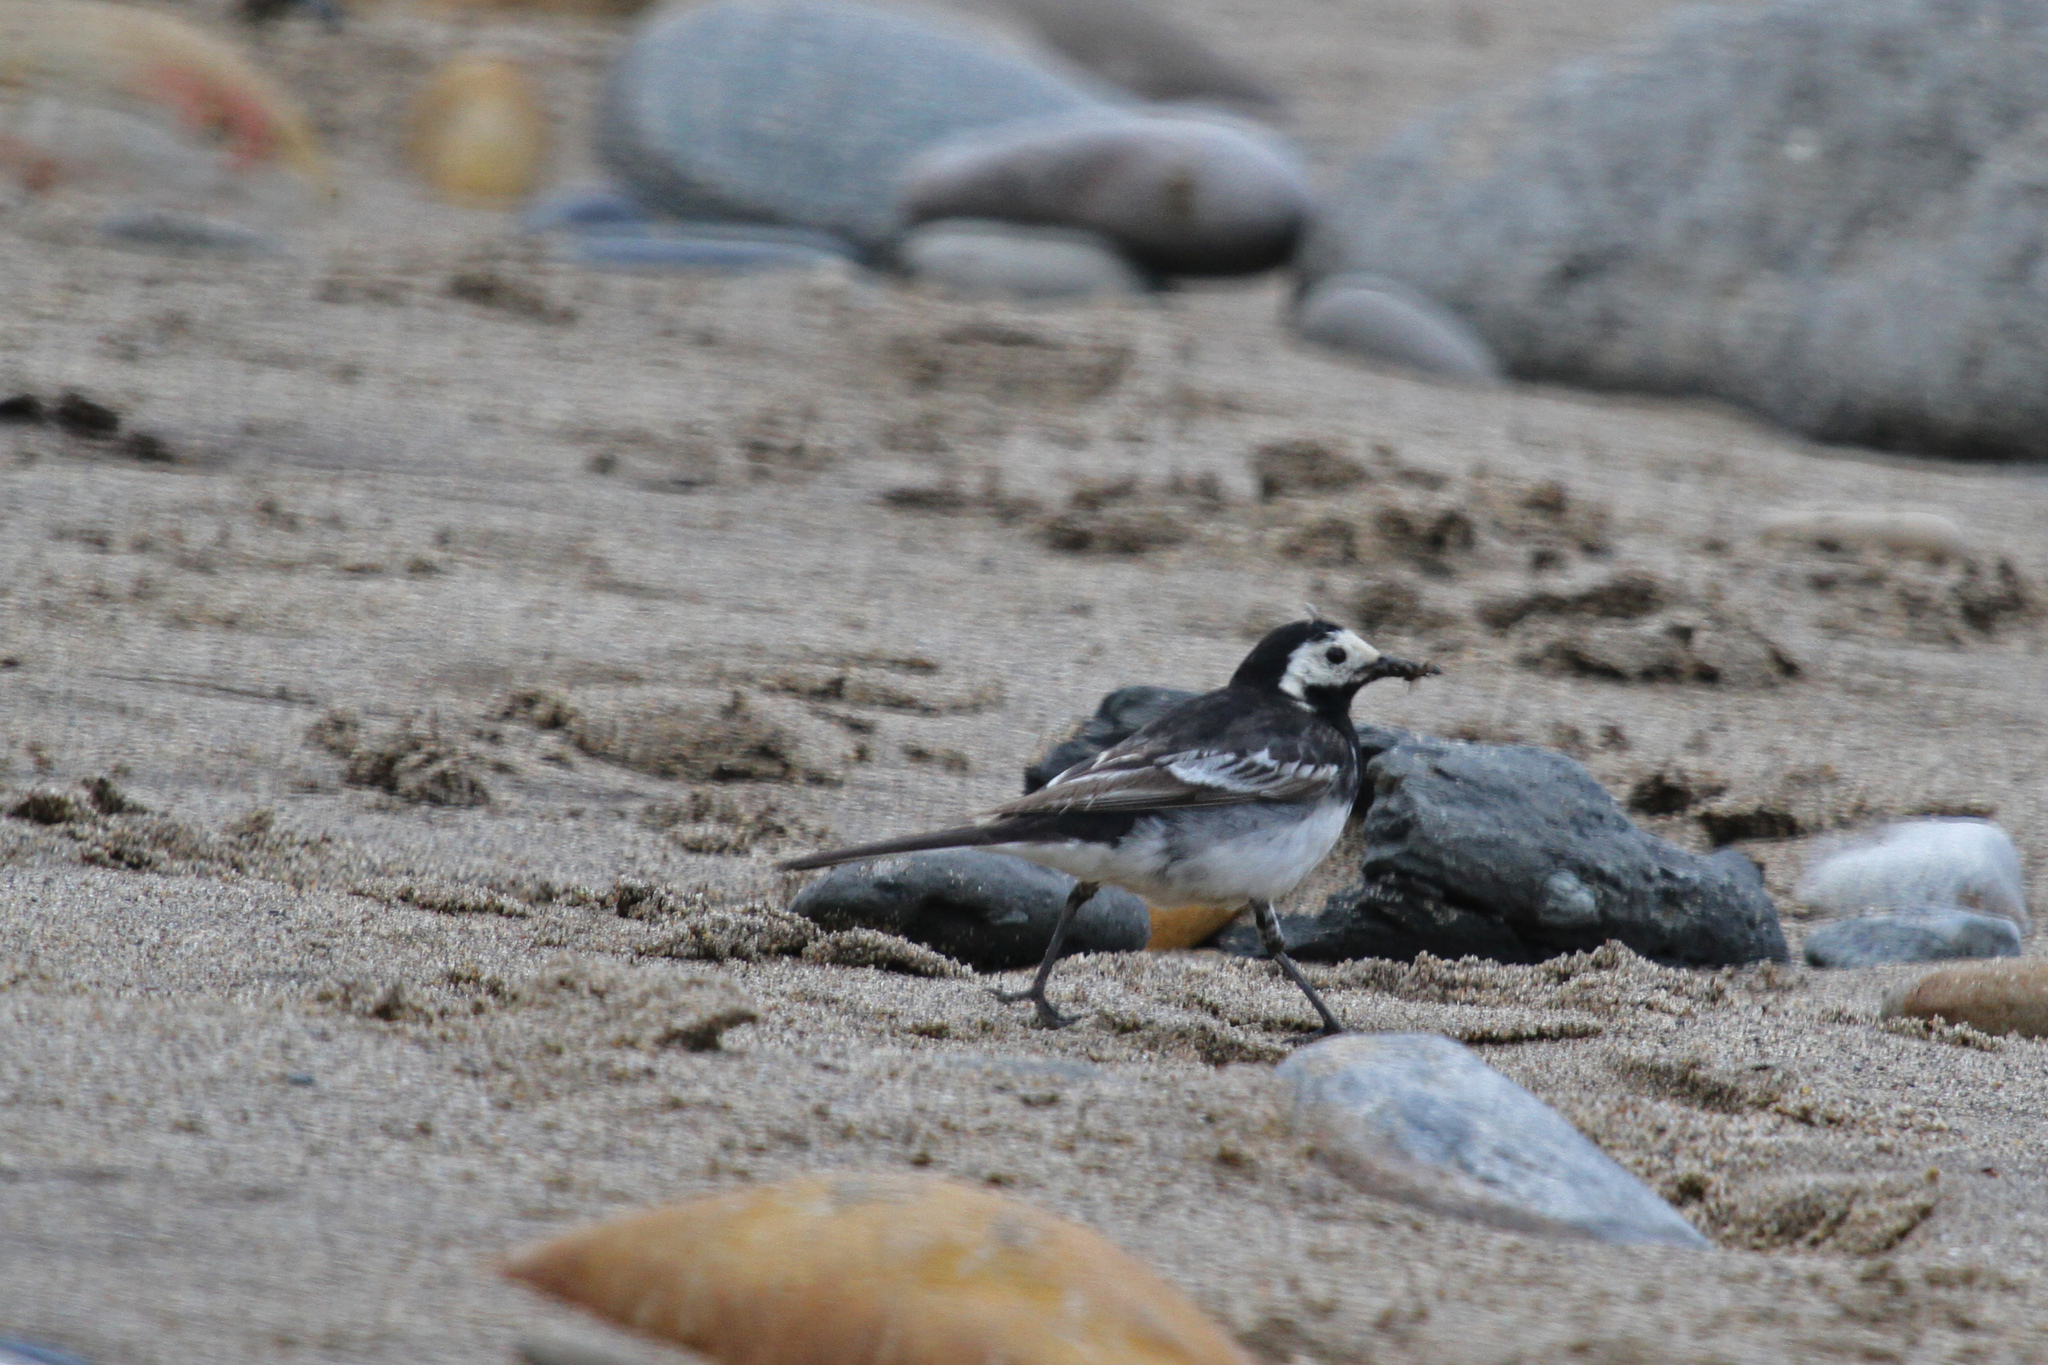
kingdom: Animalia
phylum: Chordata
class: Aves
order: Passeriformes
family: Motacillidae
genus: Motacilla
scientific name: Motacilla alba
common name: White wagtail
